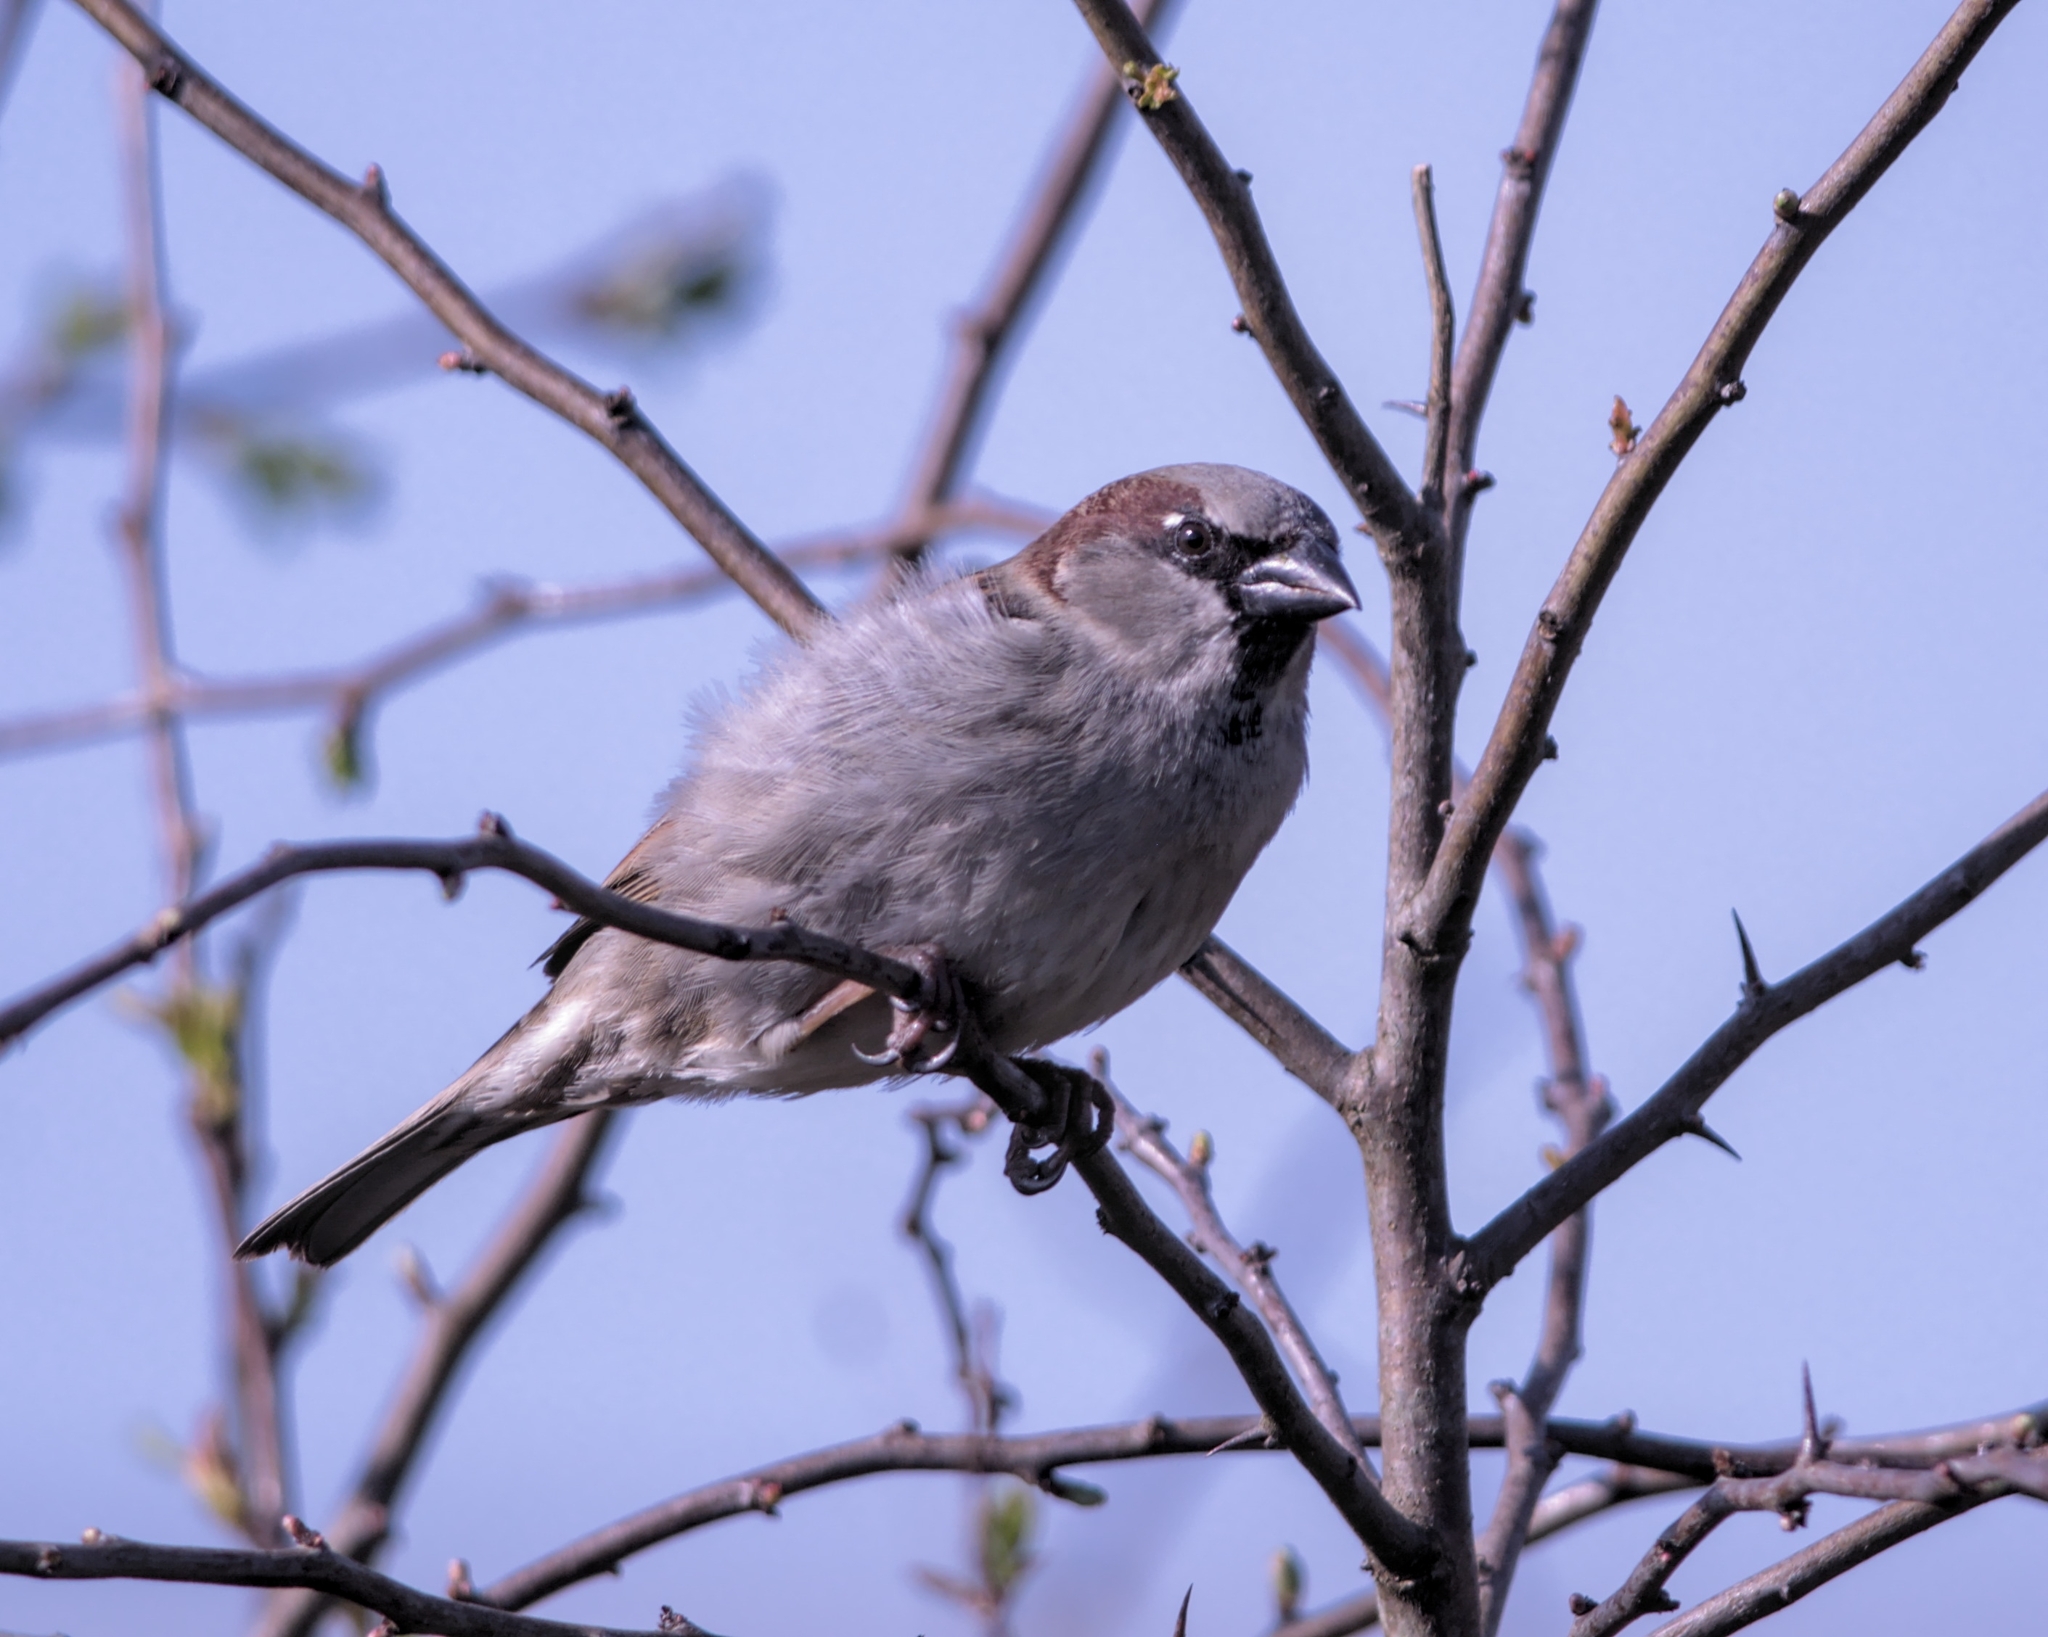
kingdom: Animalia
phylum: Chordata
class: Aves
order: Passeriformes
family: Passeridae
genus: Passer
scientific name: Passer domesticus
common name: House sparrow
